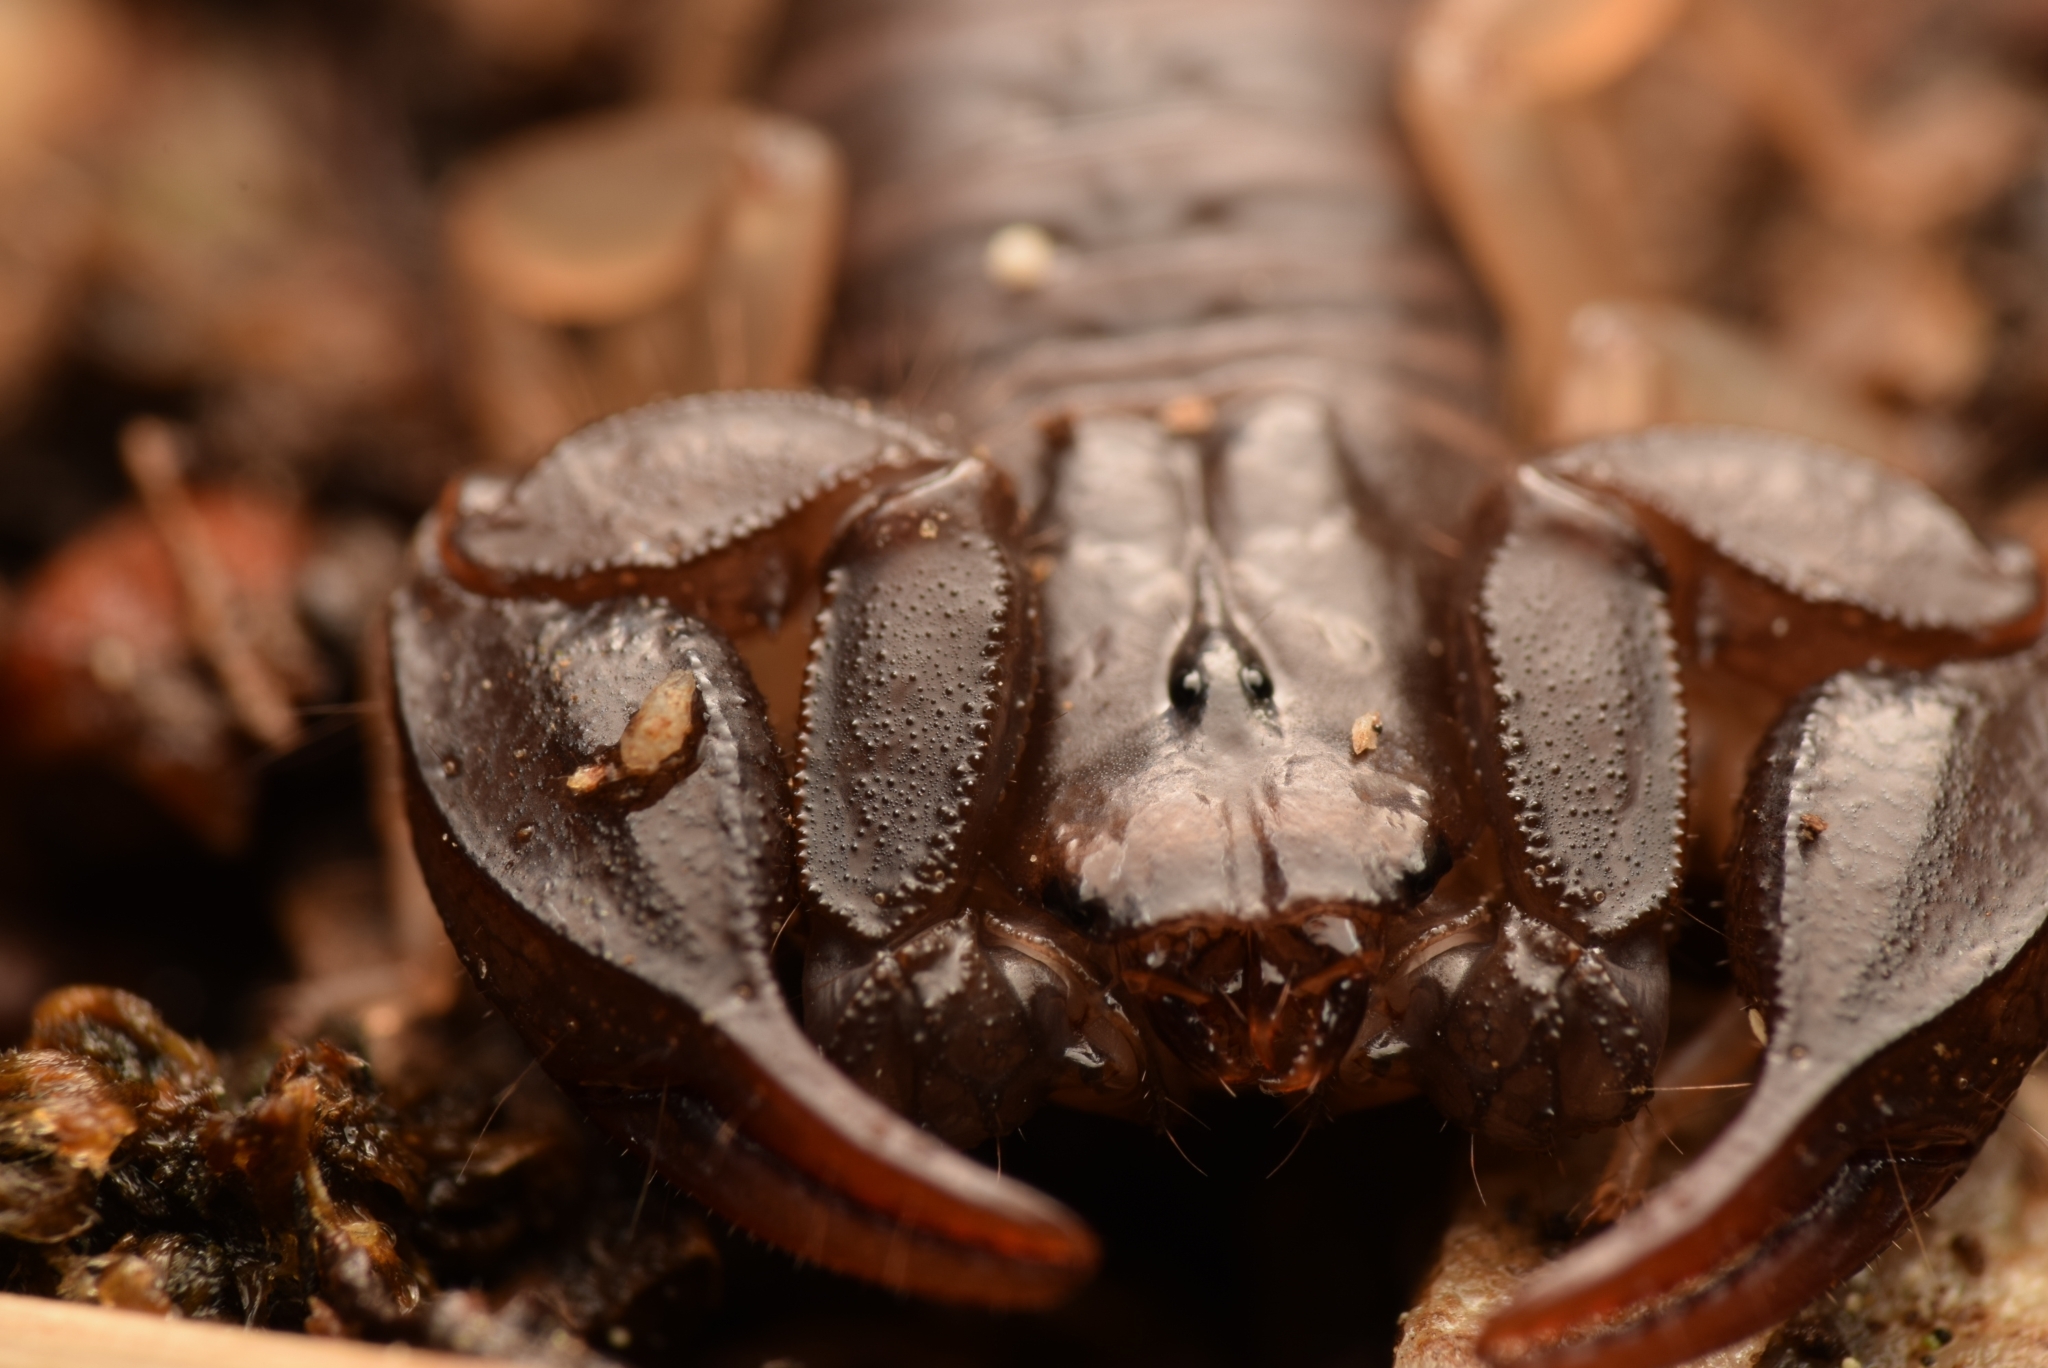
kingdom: Animalia
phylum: Arthropoda
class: Arachnida
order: Scorpiones
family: Euscorpiidae
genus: Euscorpius
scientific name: Euscorpius flavicaudis
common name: European yellow-tailed scorpion
